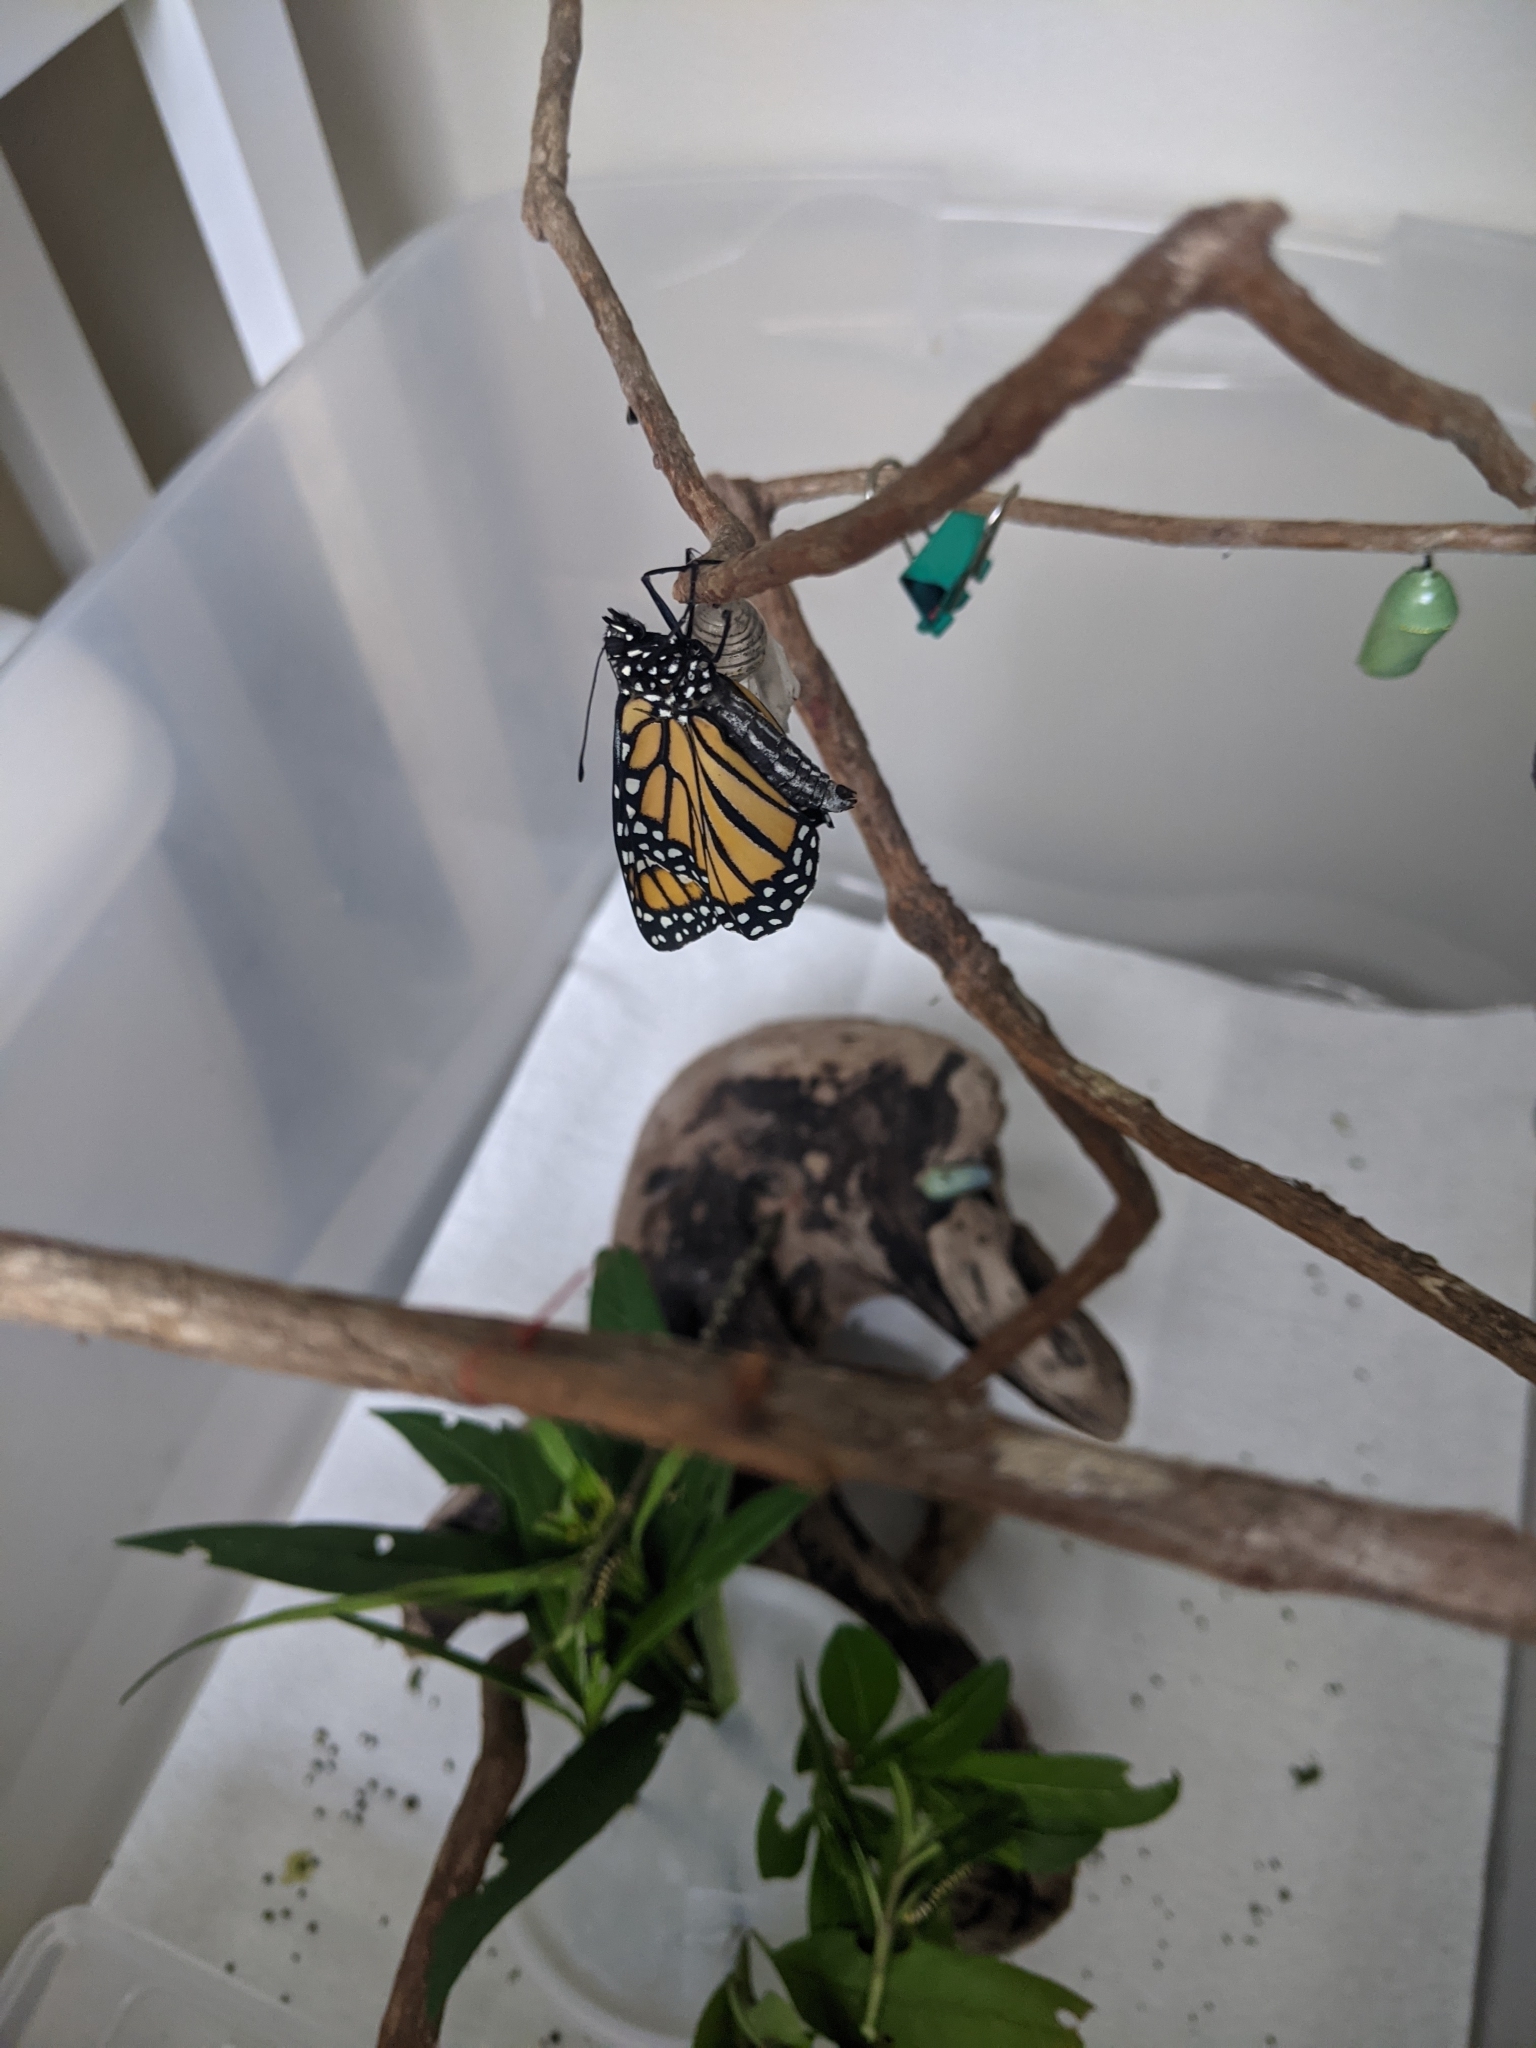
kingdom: Animalia
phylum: Arthropoda
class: Insecta
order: Lepidoptera
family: Nymphalidae
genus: Danaus
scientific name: Danaus plexippus
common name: Monarch
